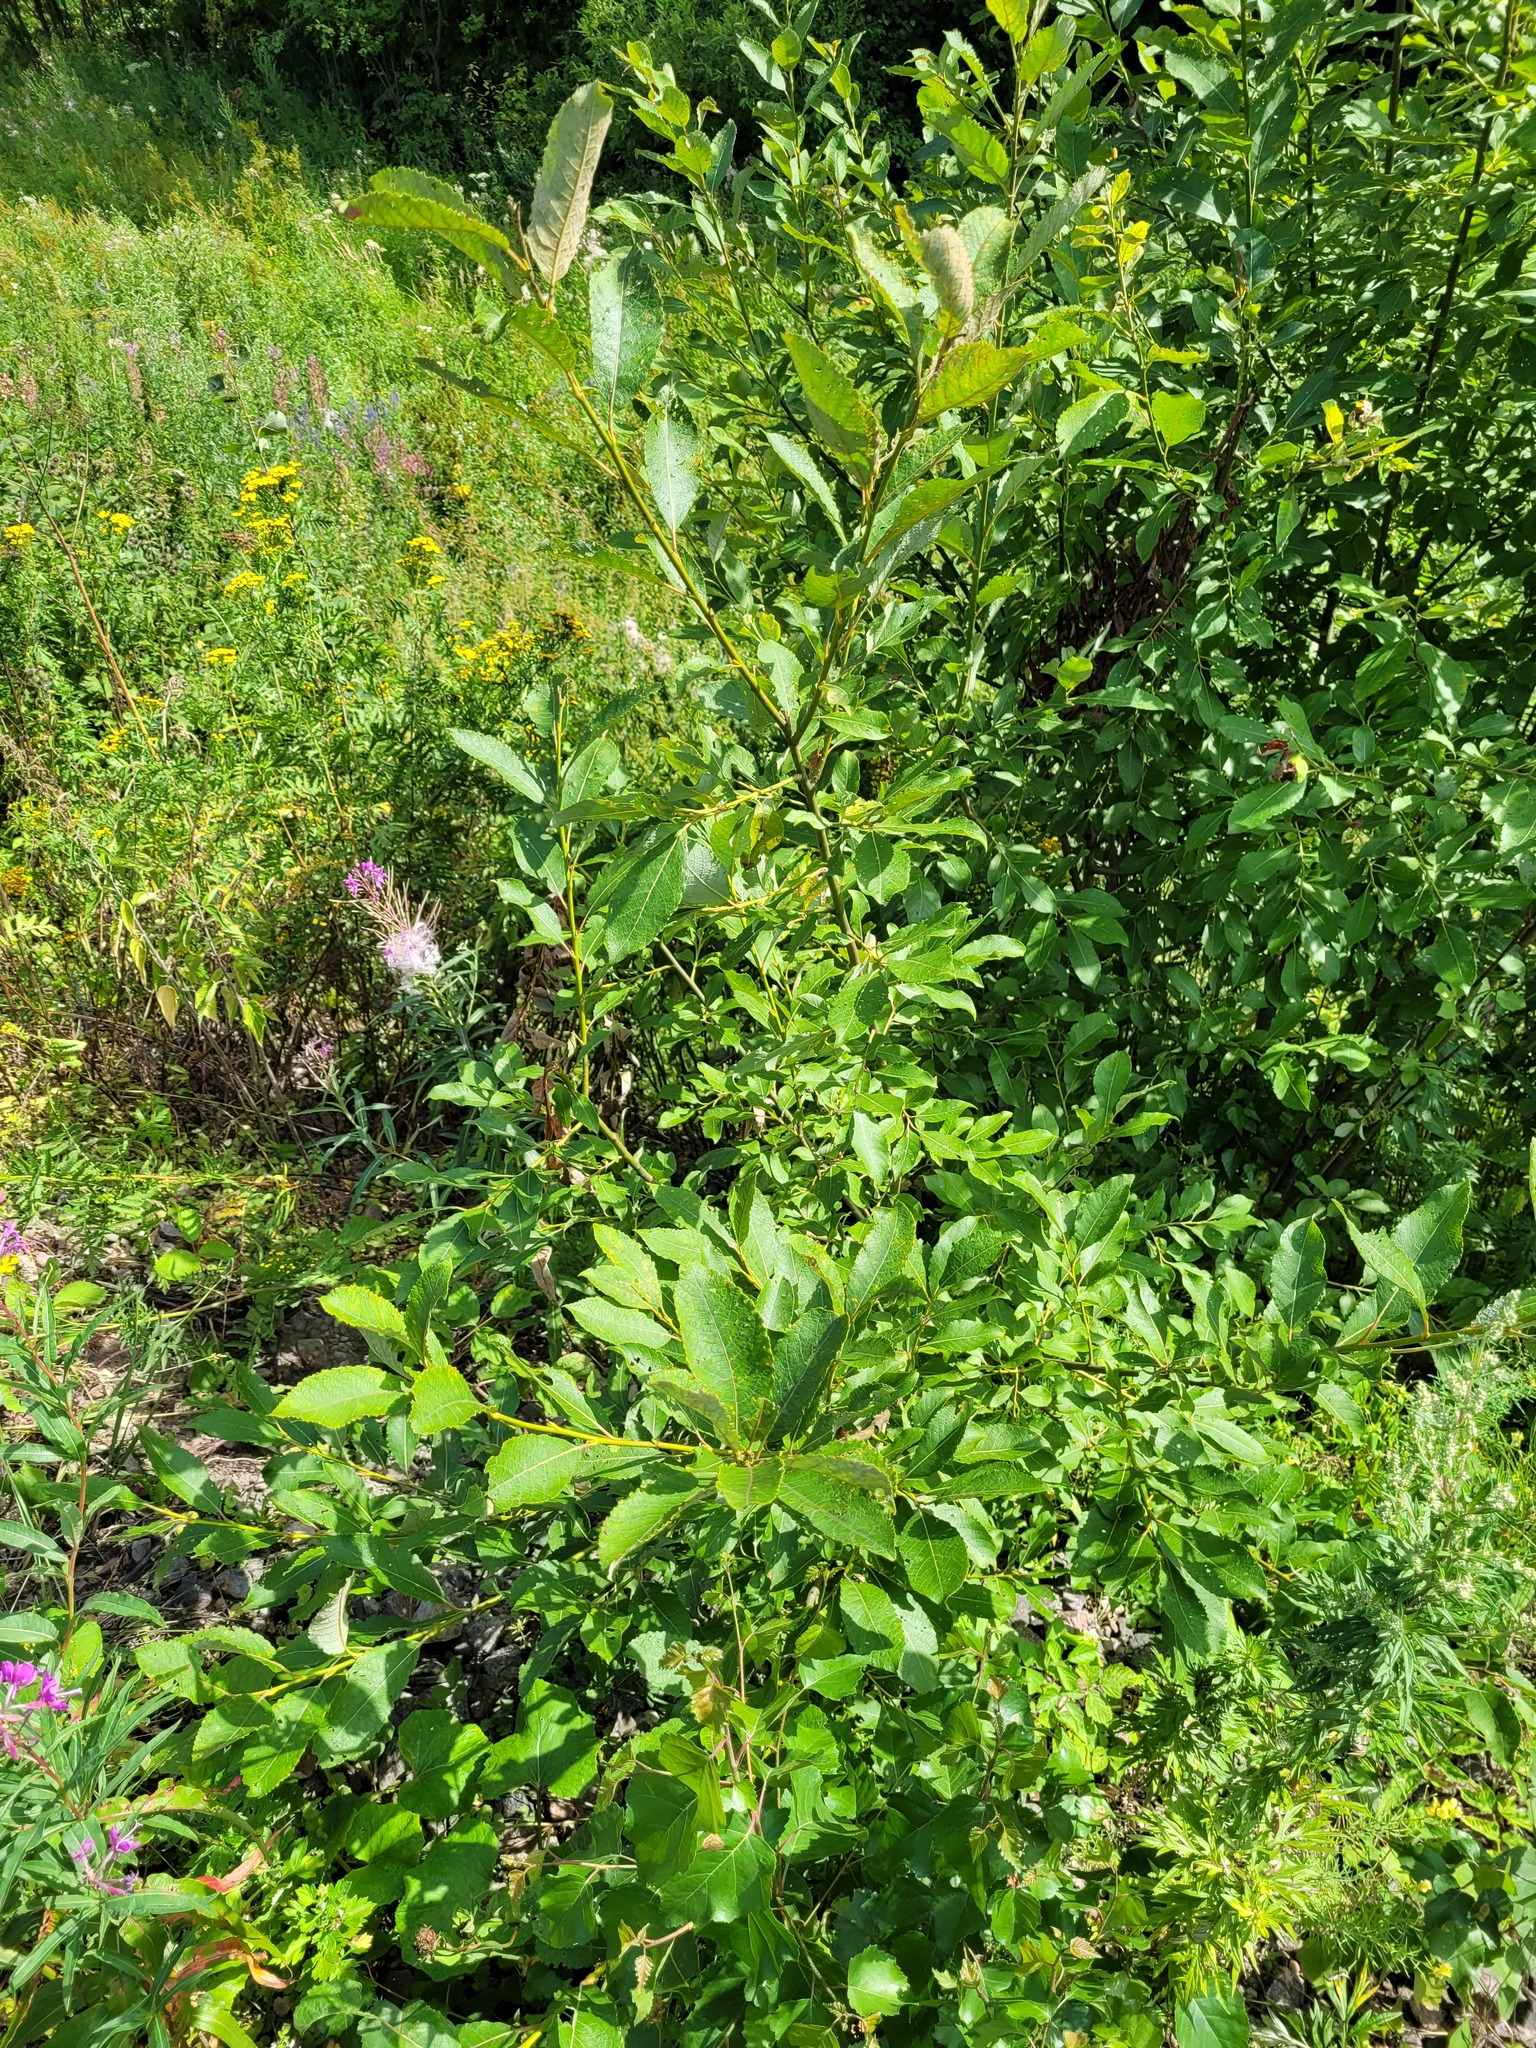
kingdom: Plantae
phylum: Tracheophyta
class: Magnoliopsida
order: Malpighiales
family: Salicaceae
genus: Salix
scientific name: Salix caprea
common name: Goat willow
